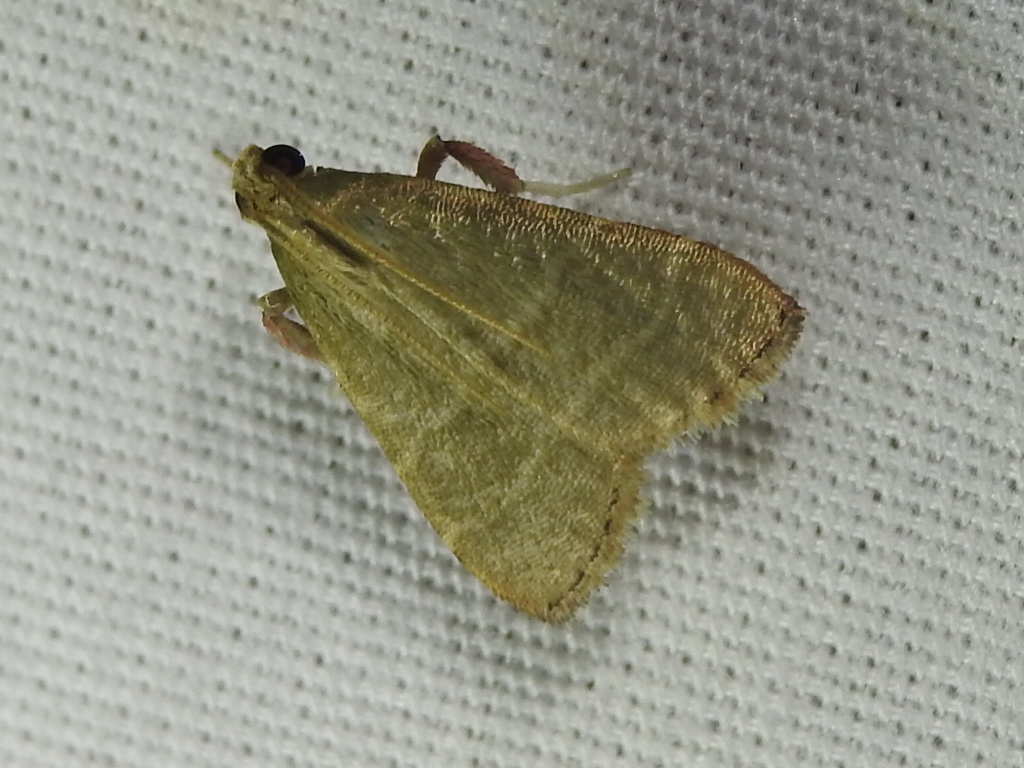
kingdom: Animalia
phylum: Arthropoda
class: Insecta
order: Lepidoptera
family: Pyralidae
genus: Arta
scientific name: Arta olivalis
